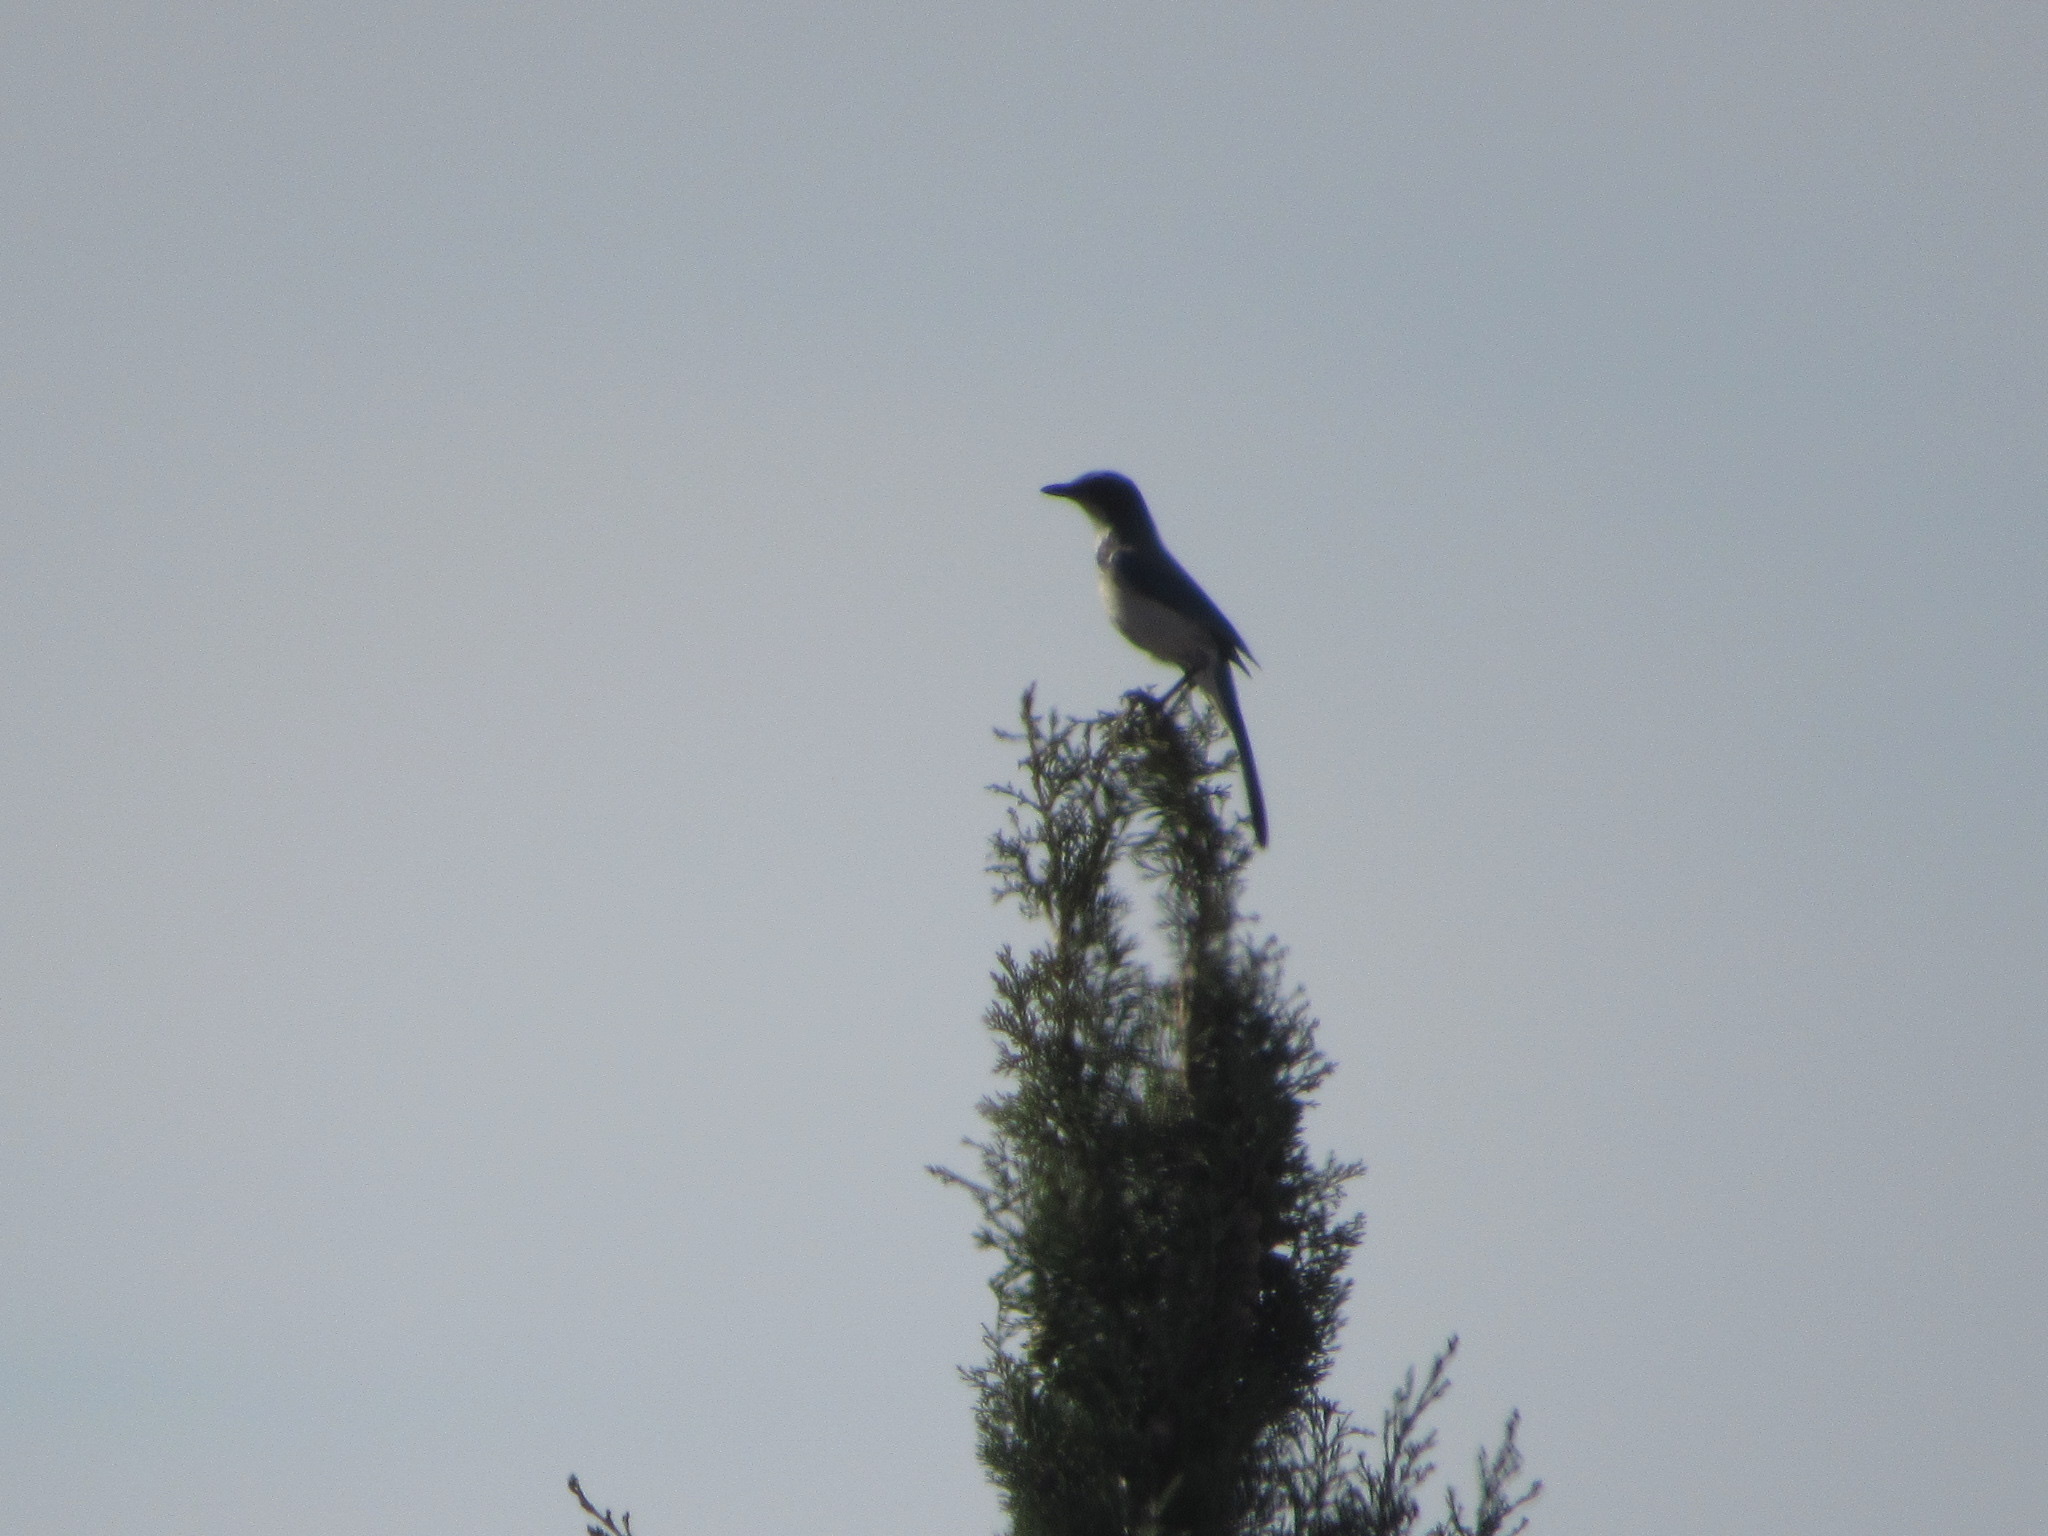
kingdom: Animalia
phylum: Chordata
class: Aves
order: Passeriformes
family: Corvidae
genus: Aphelocoma
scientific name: Aphelocoma californica
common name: California scrub-jay
